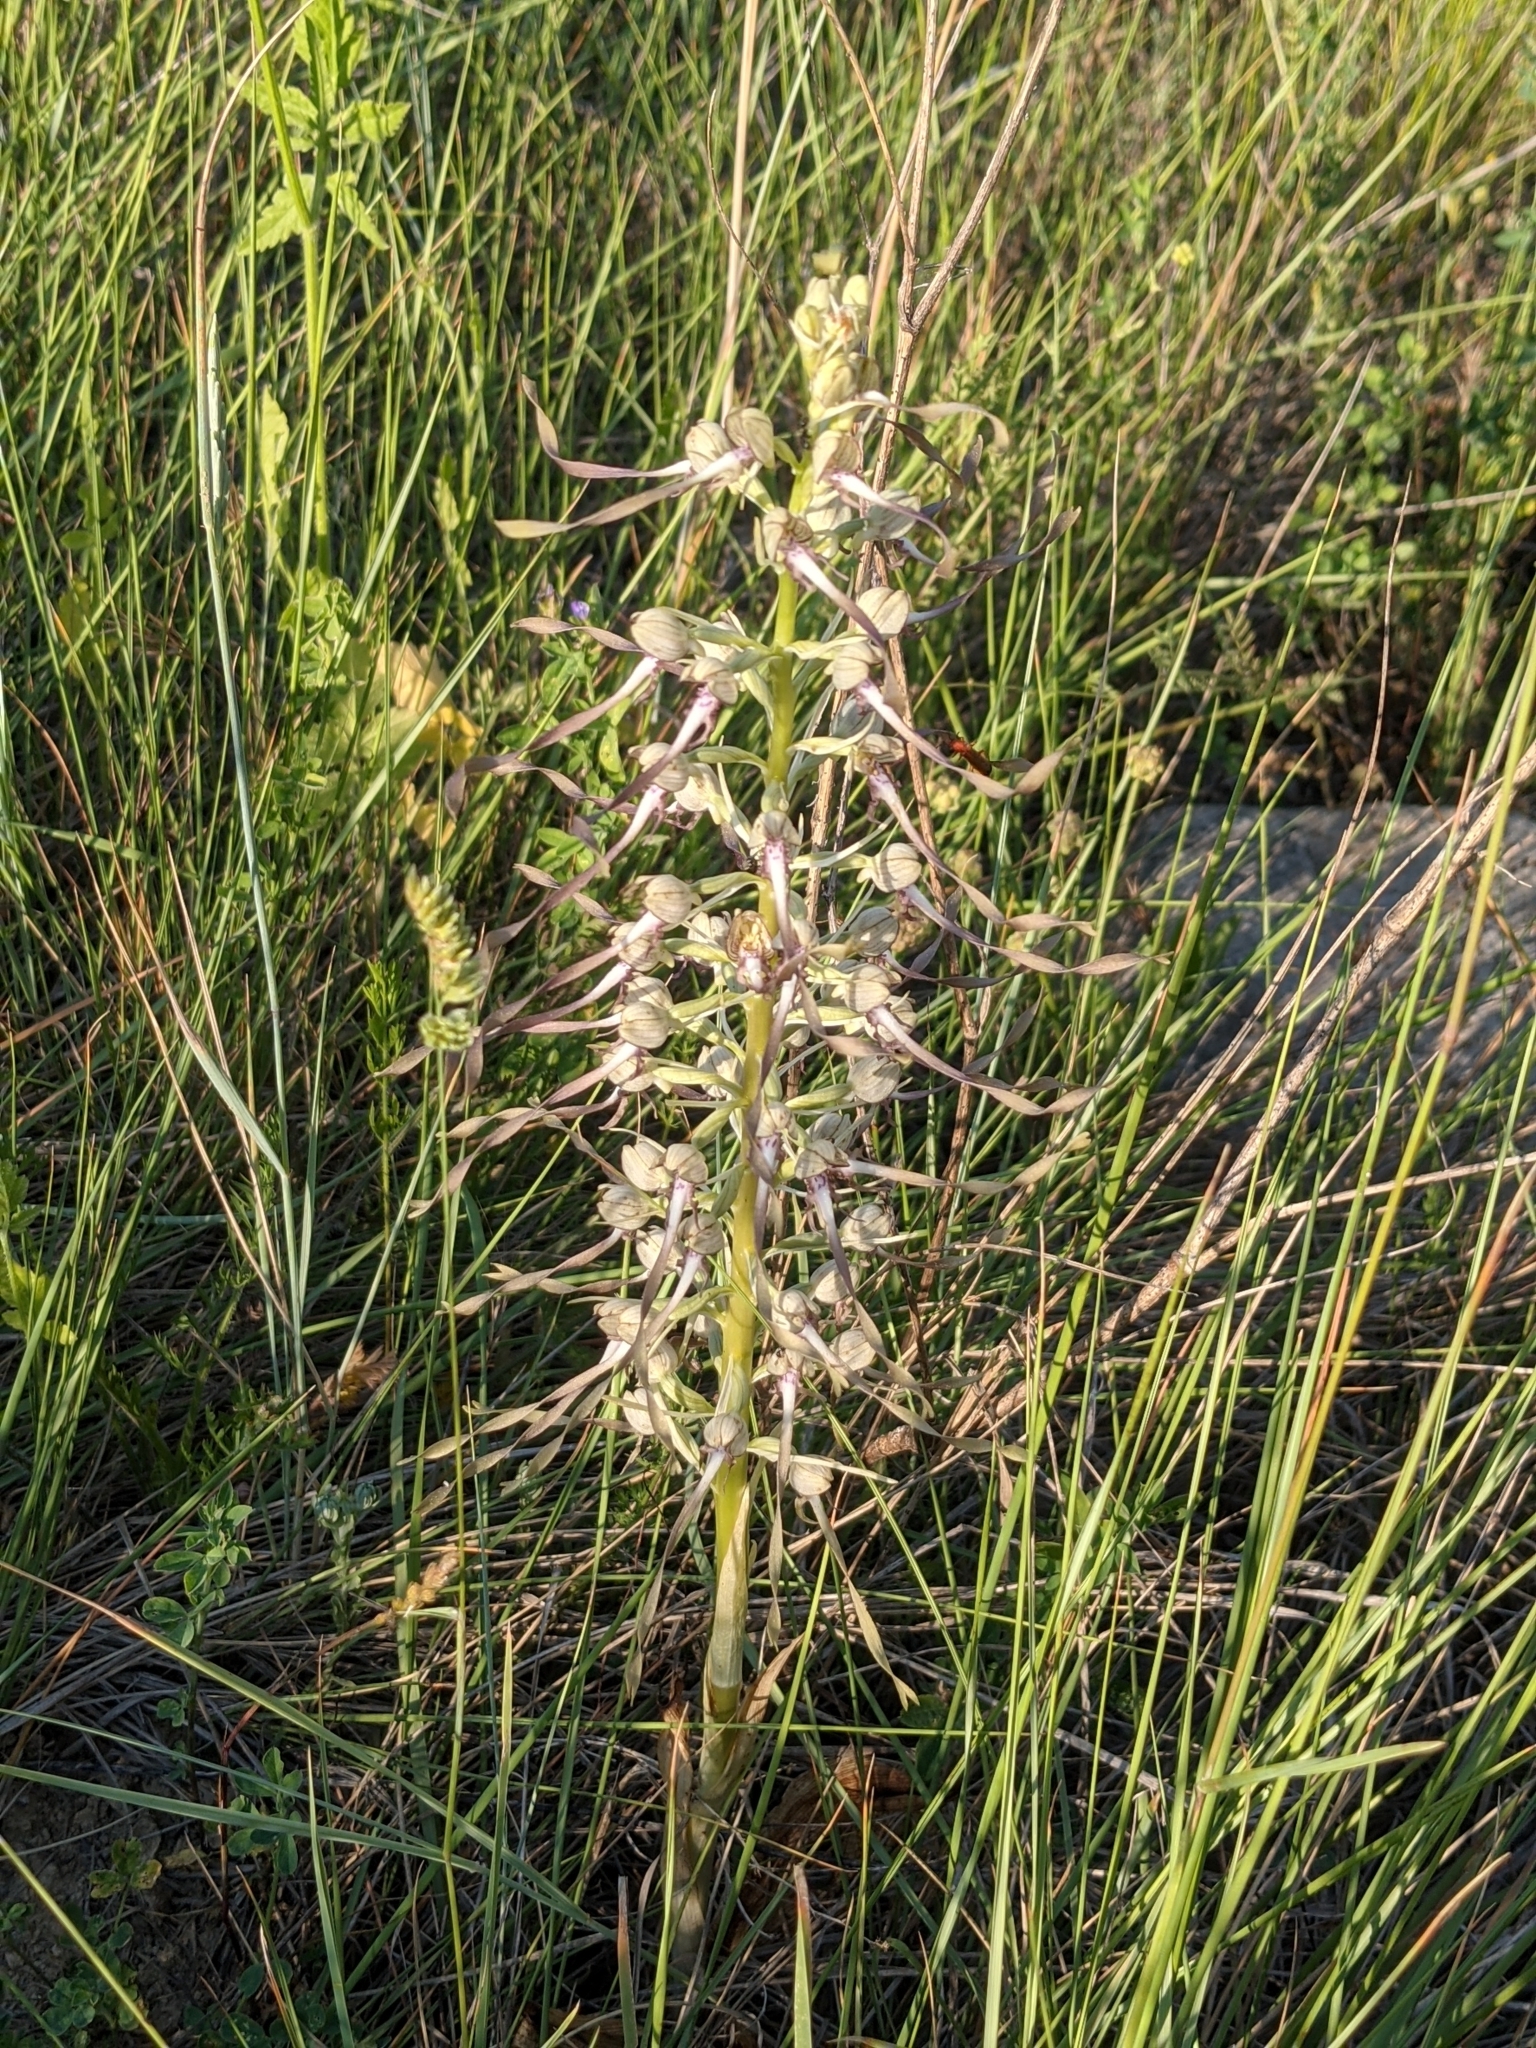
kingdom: Plantae
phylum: Tracheophyta
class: Liliopsida
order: Asparagales
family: Orchidaceae
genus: Himantoglossum
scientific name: Himantoglossum hircinum
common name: Lizard orchid
